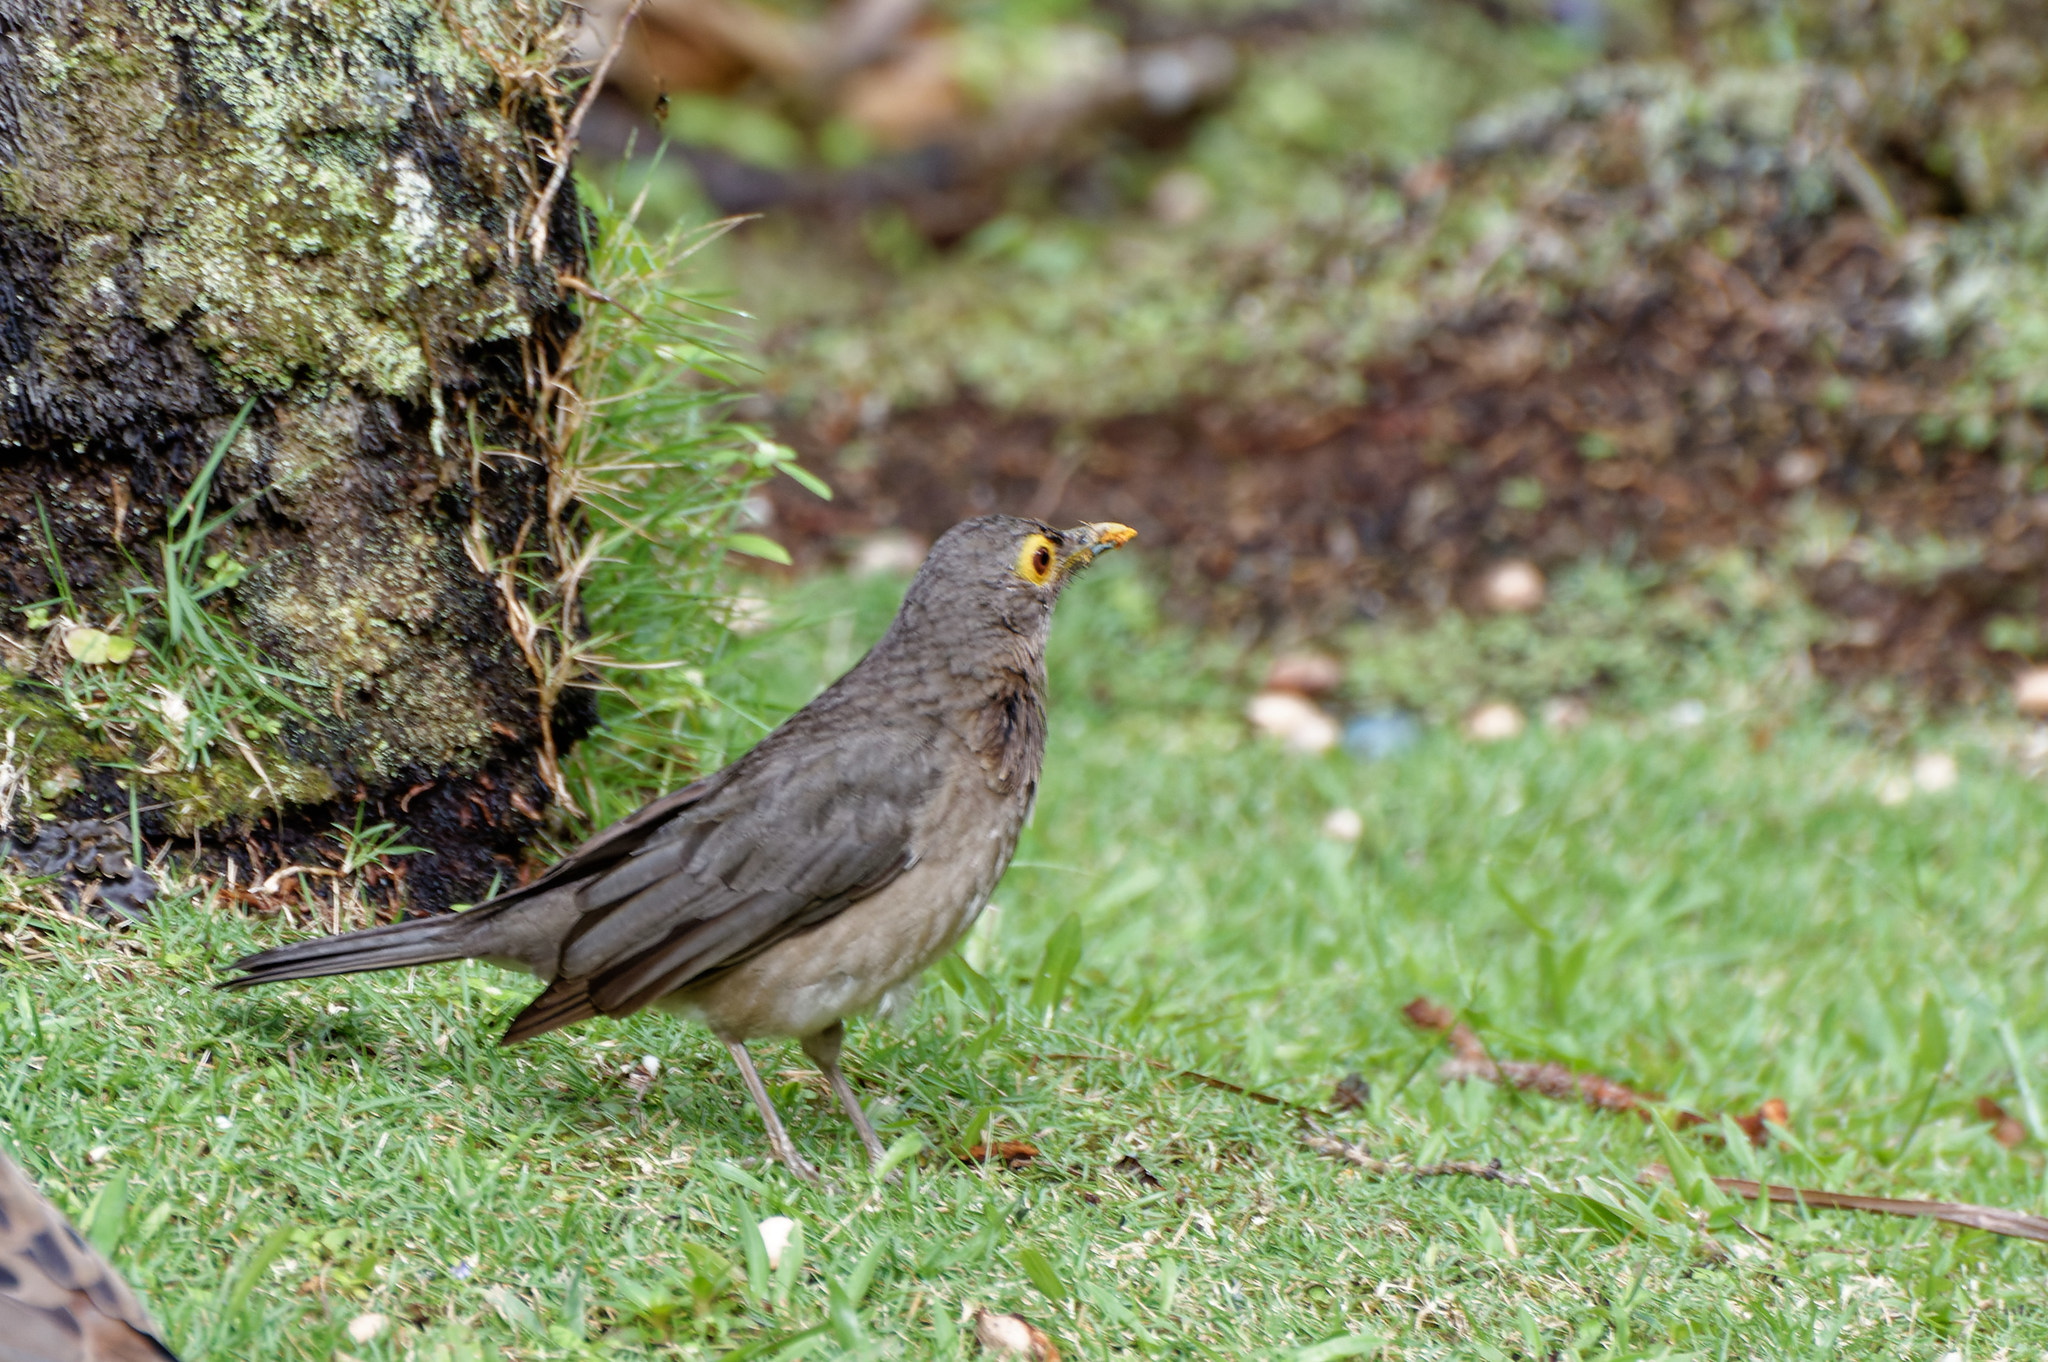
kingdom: Animalia
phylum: Chordata
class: Aves
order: Passeriformes
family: Turdidae
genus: Turdus
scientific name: Turdus nudigenis
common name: Spectacled thrush
